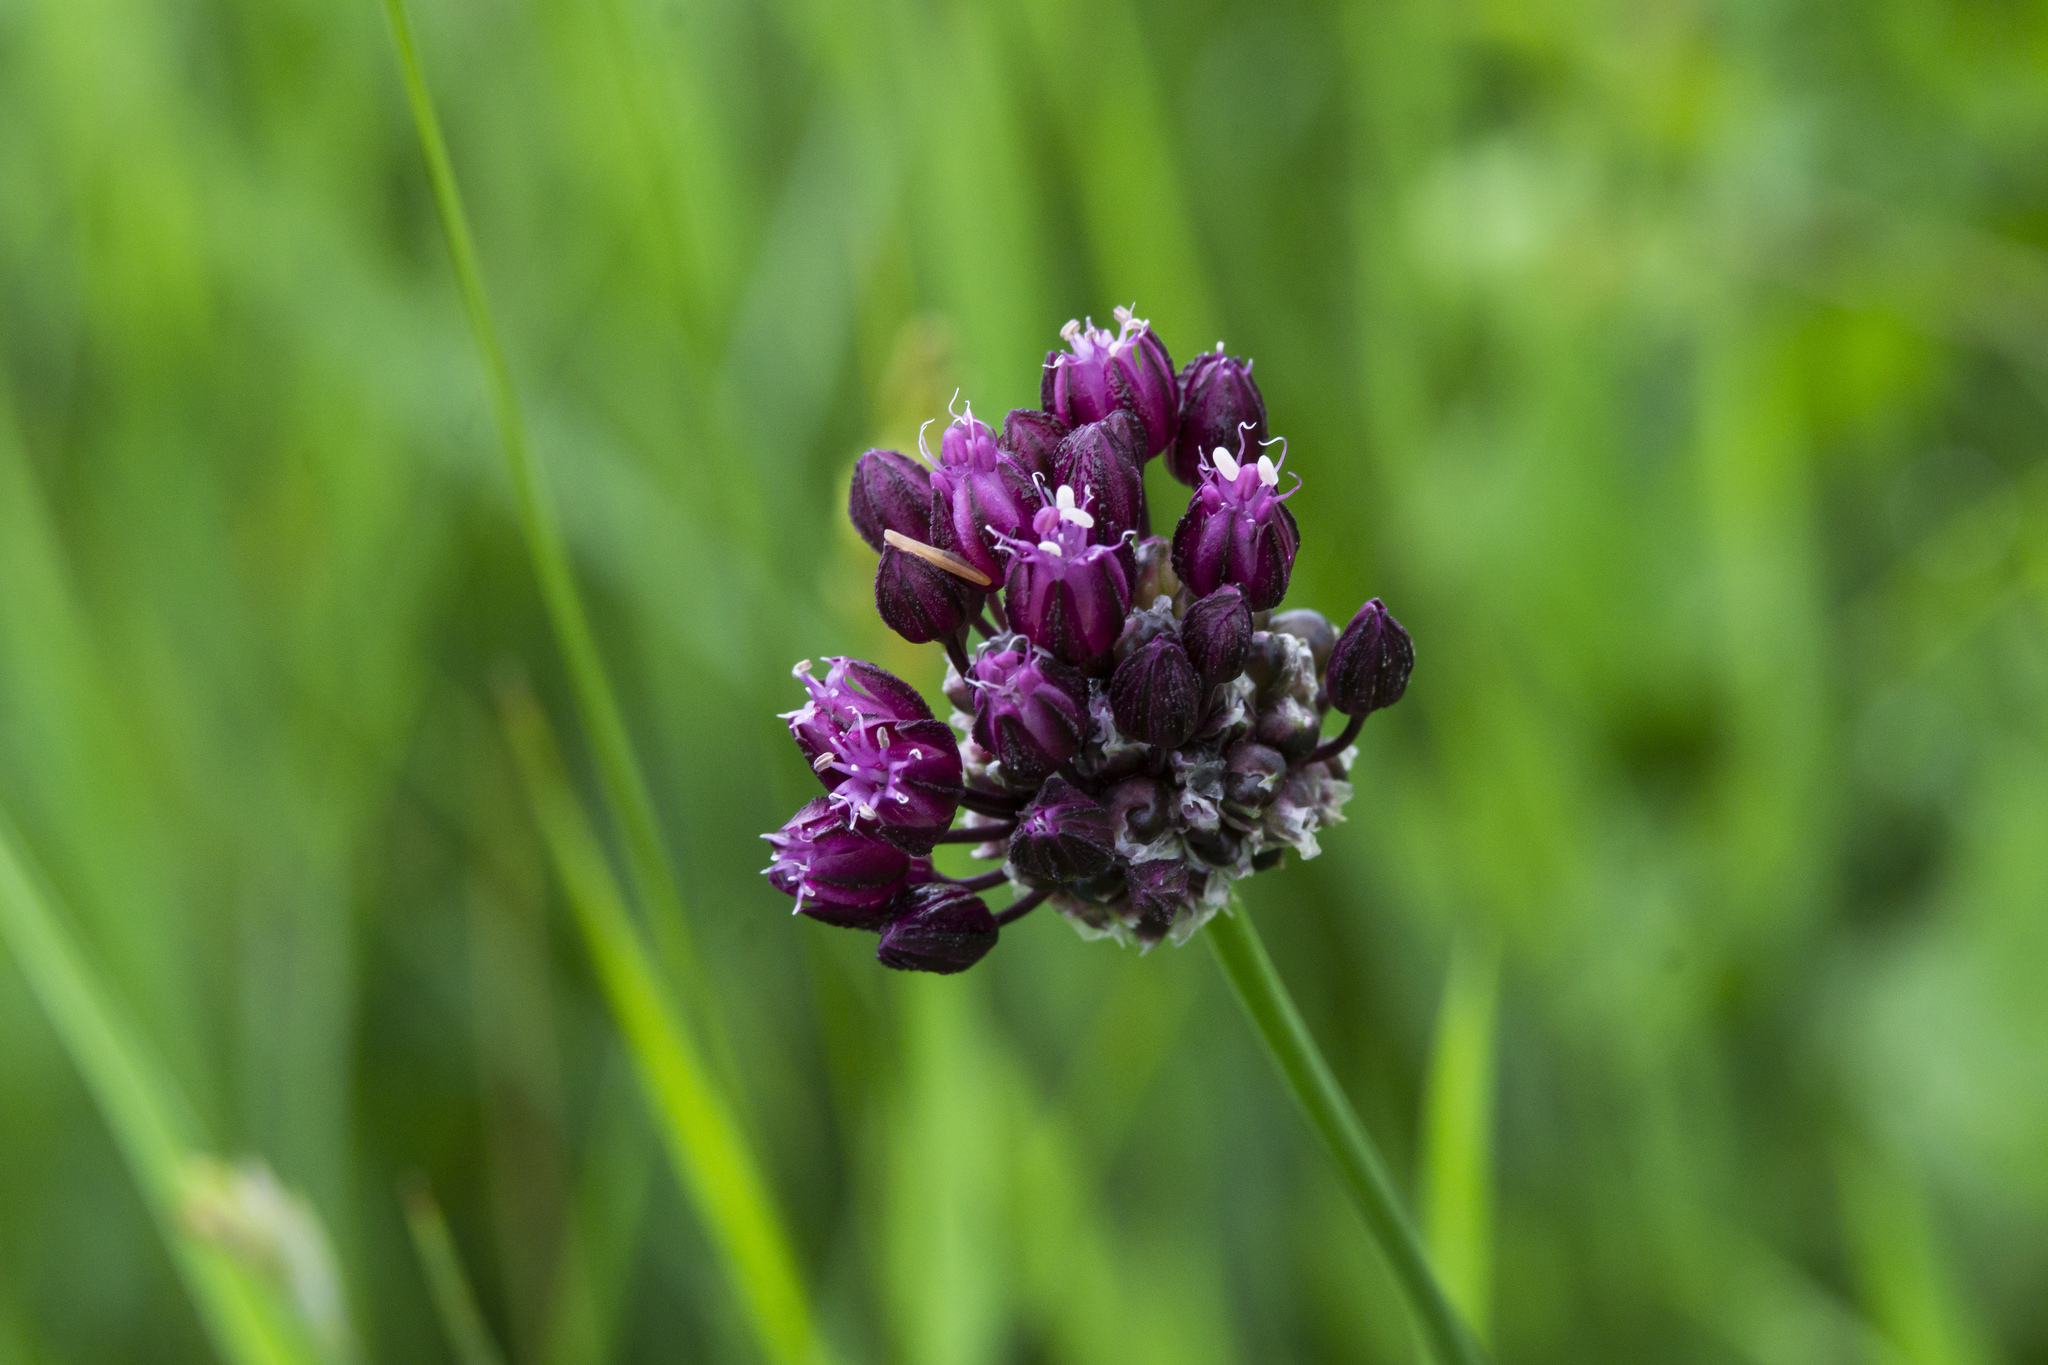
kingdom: Plantae
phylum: Tracheophyta
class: Liliopsida
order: Asparagales
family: Amaryllidaceae
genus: Allium
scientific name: Allium scorodoprasum
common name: Sand leek
